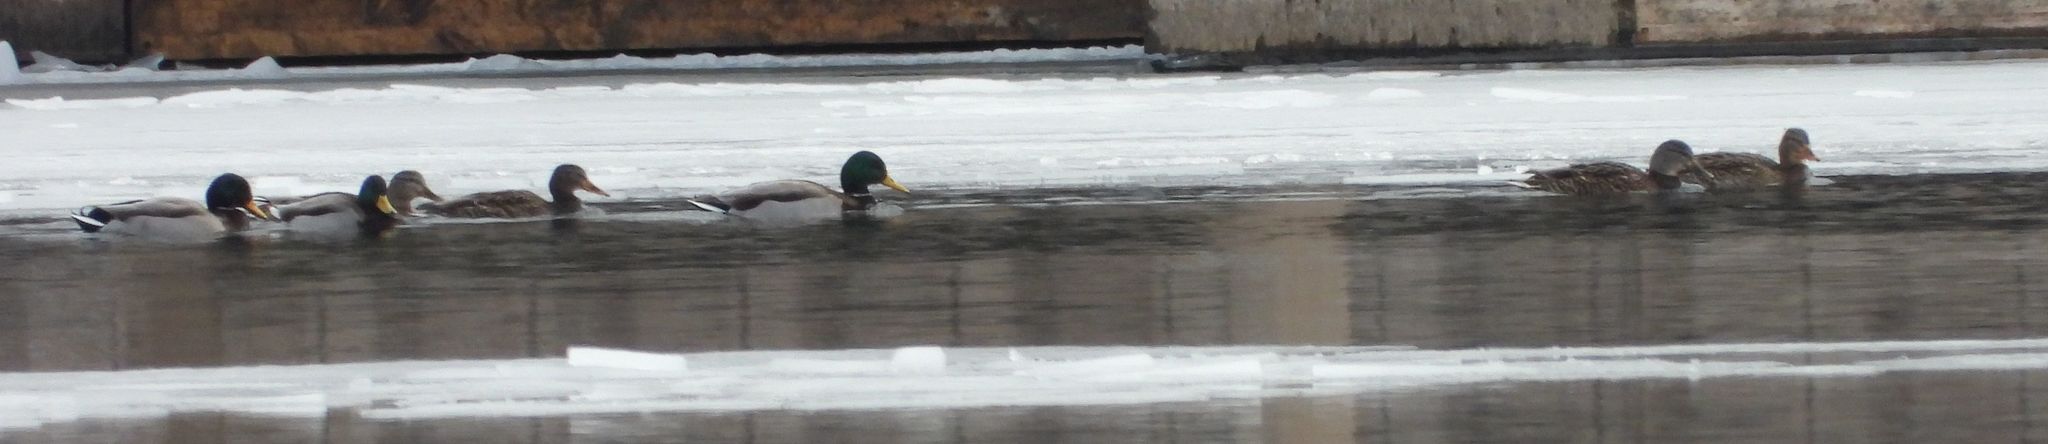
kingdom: Animalia
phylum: Chordata
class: Aves
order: Anseriformes
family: Anatidae
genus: Anas
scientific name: Anas platyrhynchos
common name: Mallard
